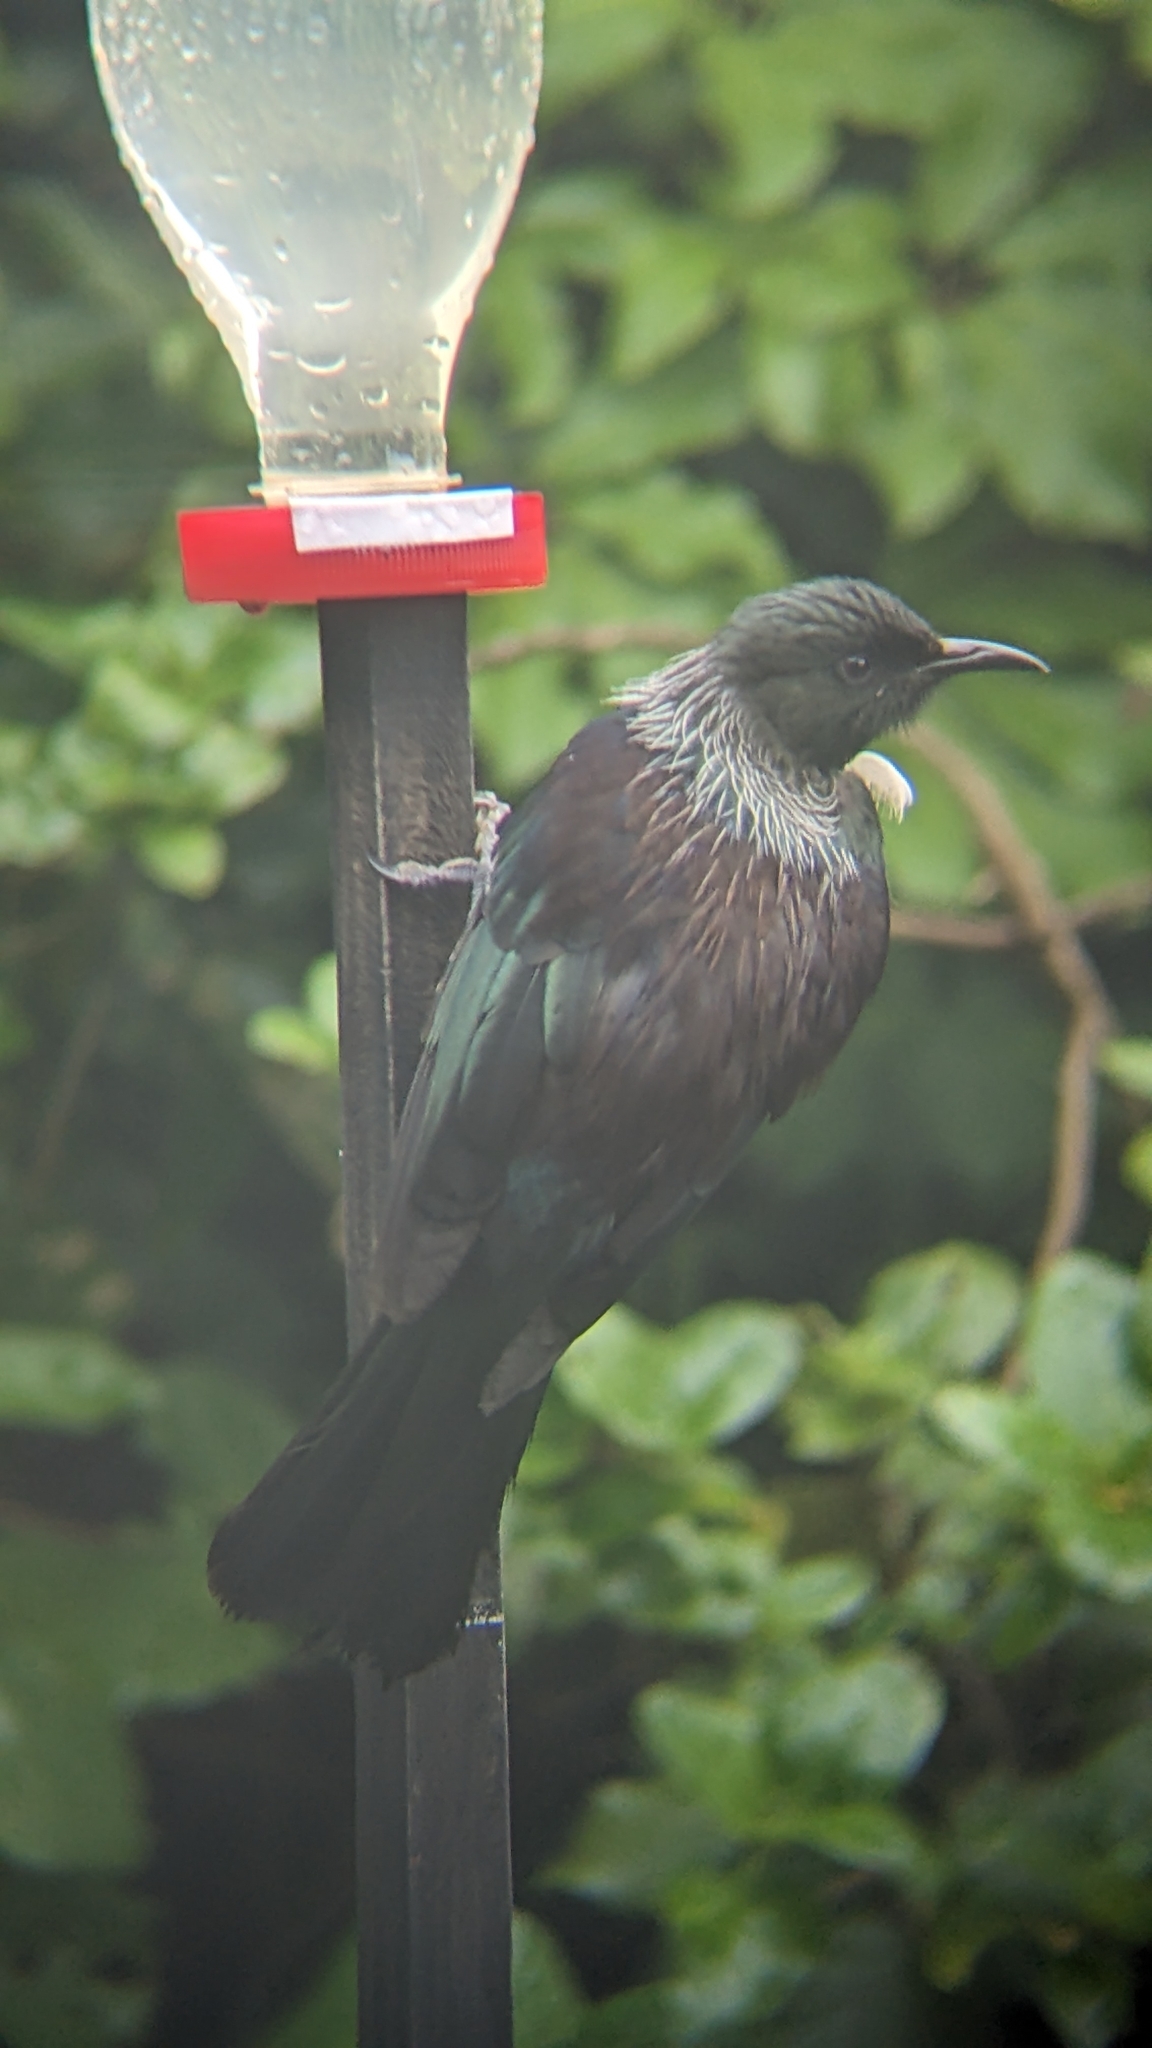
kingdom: Animalia
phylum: Chordata
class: Aves
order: Passeriformes
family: Meliphagidae
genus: Prosthemadera
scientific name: Prosthemadera novaeseelandiae
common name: Tui
